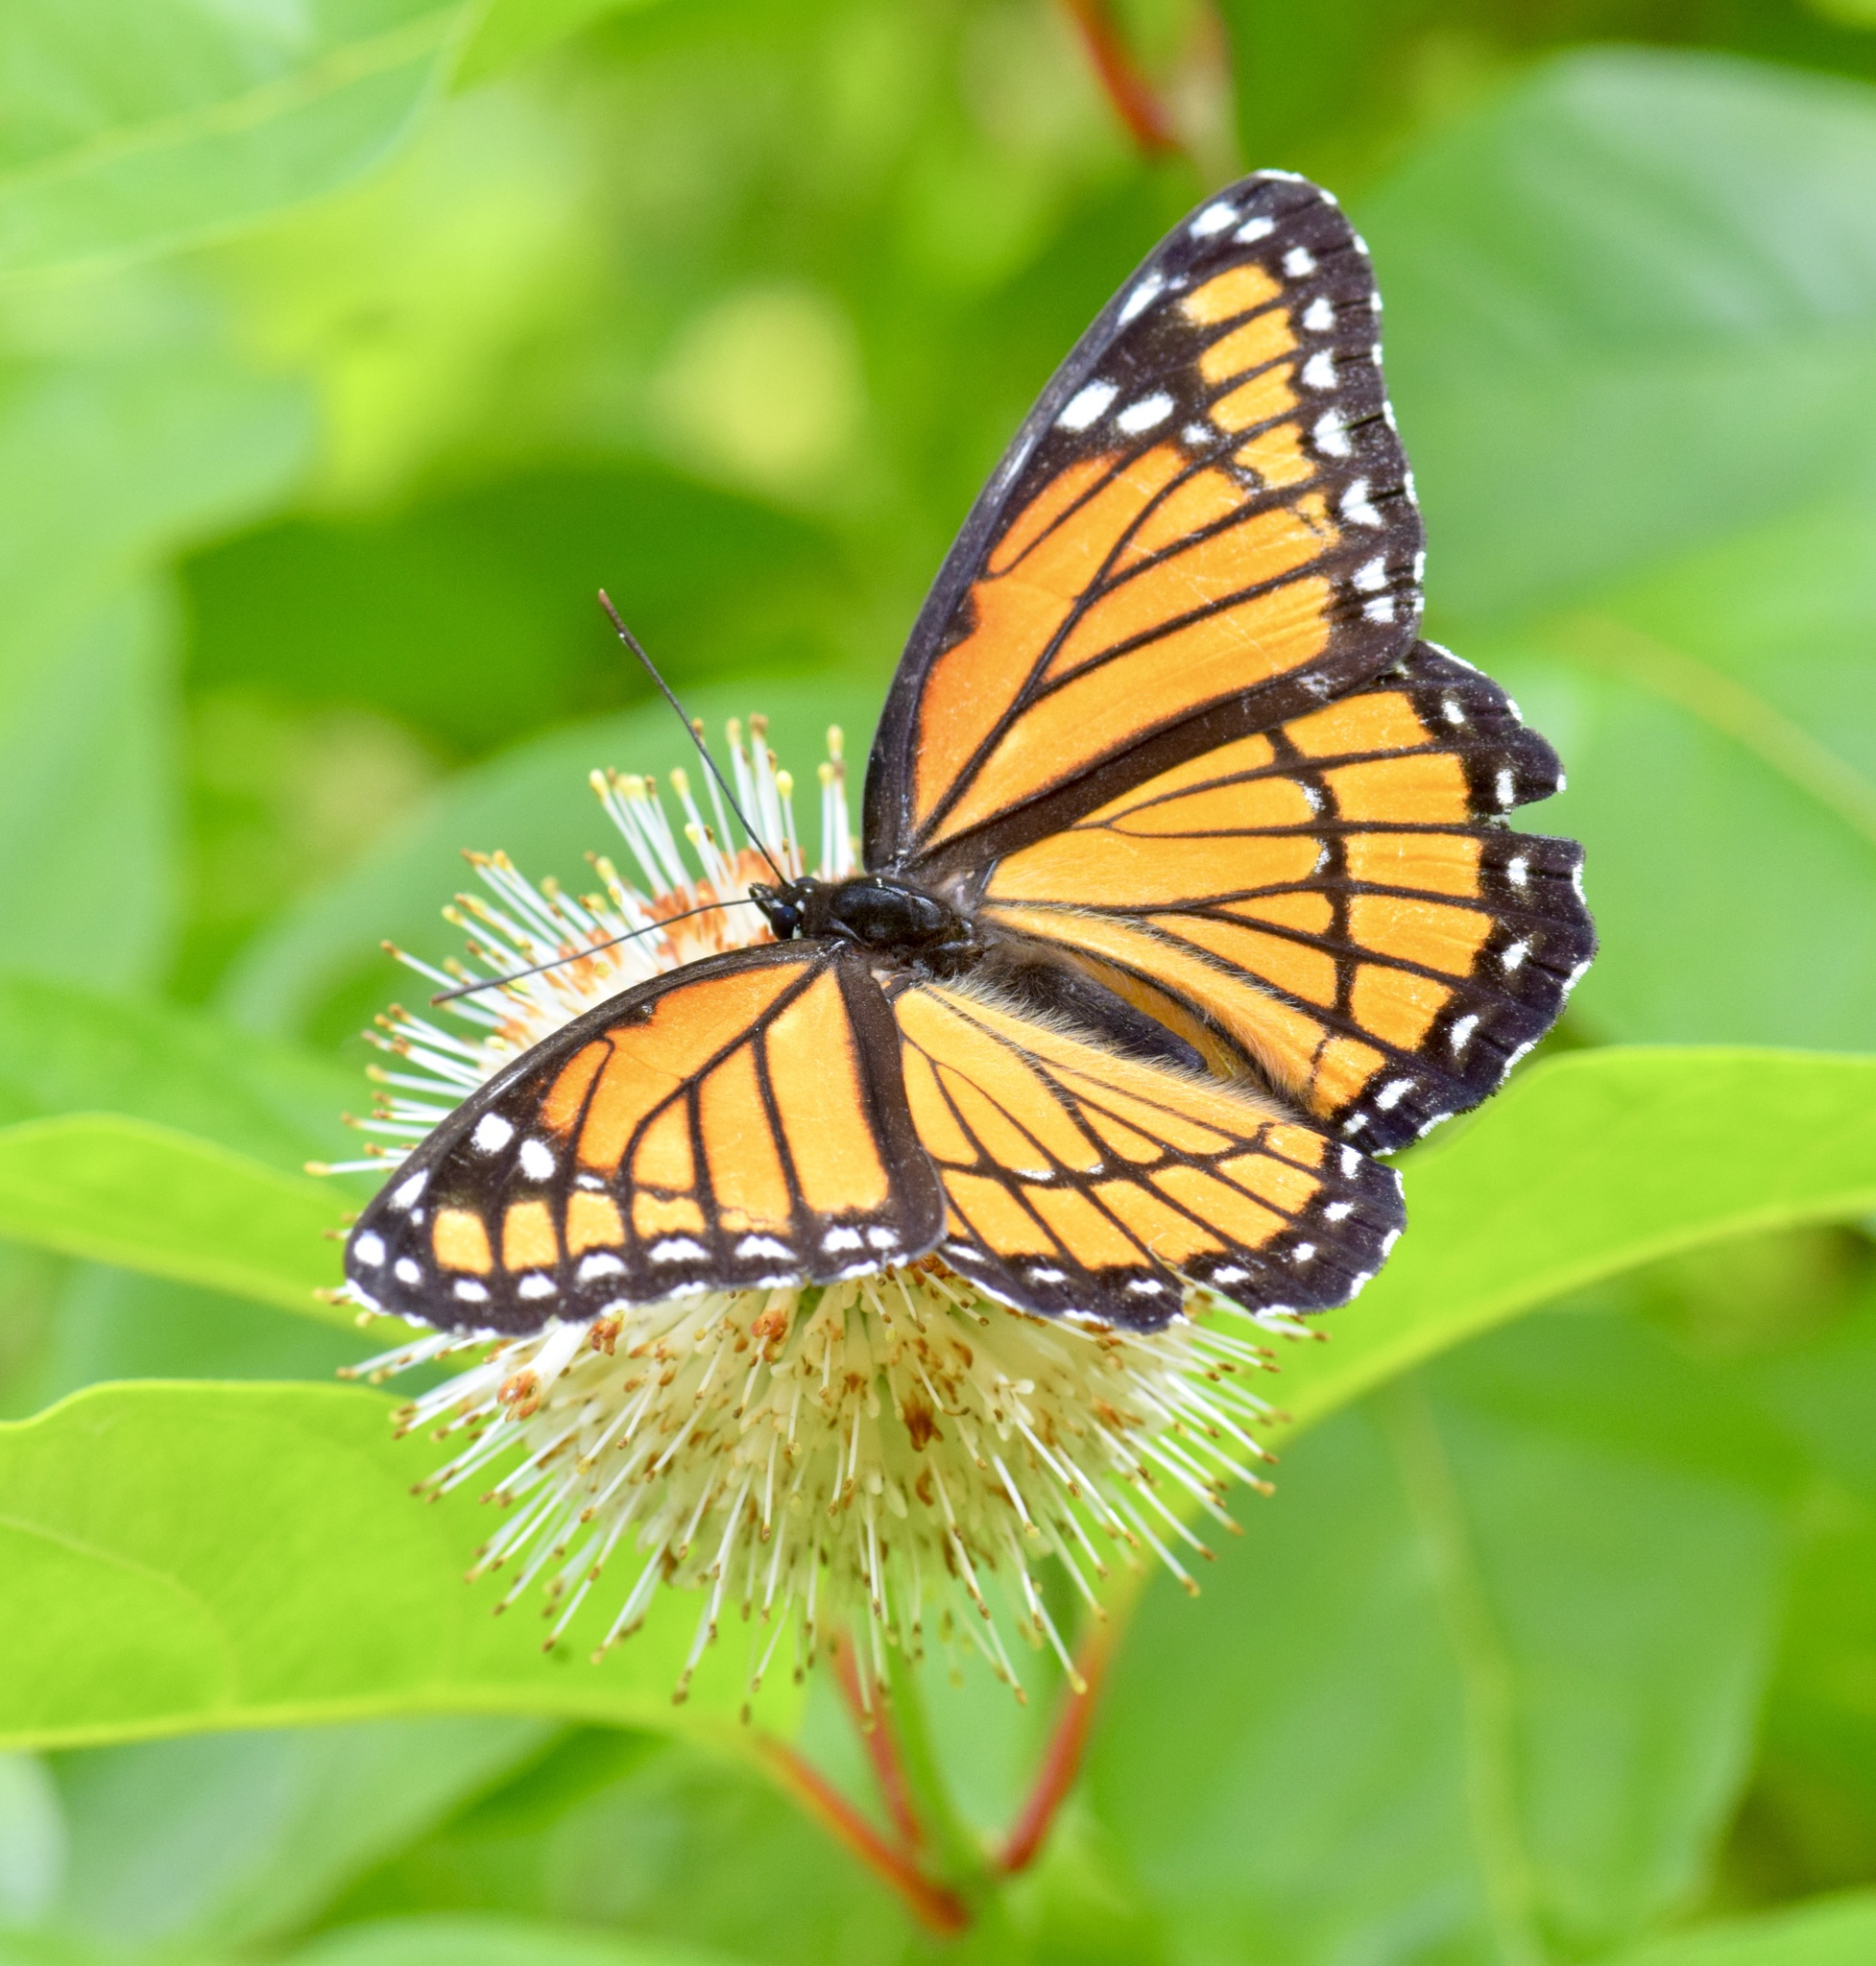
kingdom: Animalia
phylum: Arthropoda
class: Insecta
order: Lepidoptera
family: Nymphalidae
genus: Limenitis
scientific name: Limenitis archippus
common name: Viceroy
